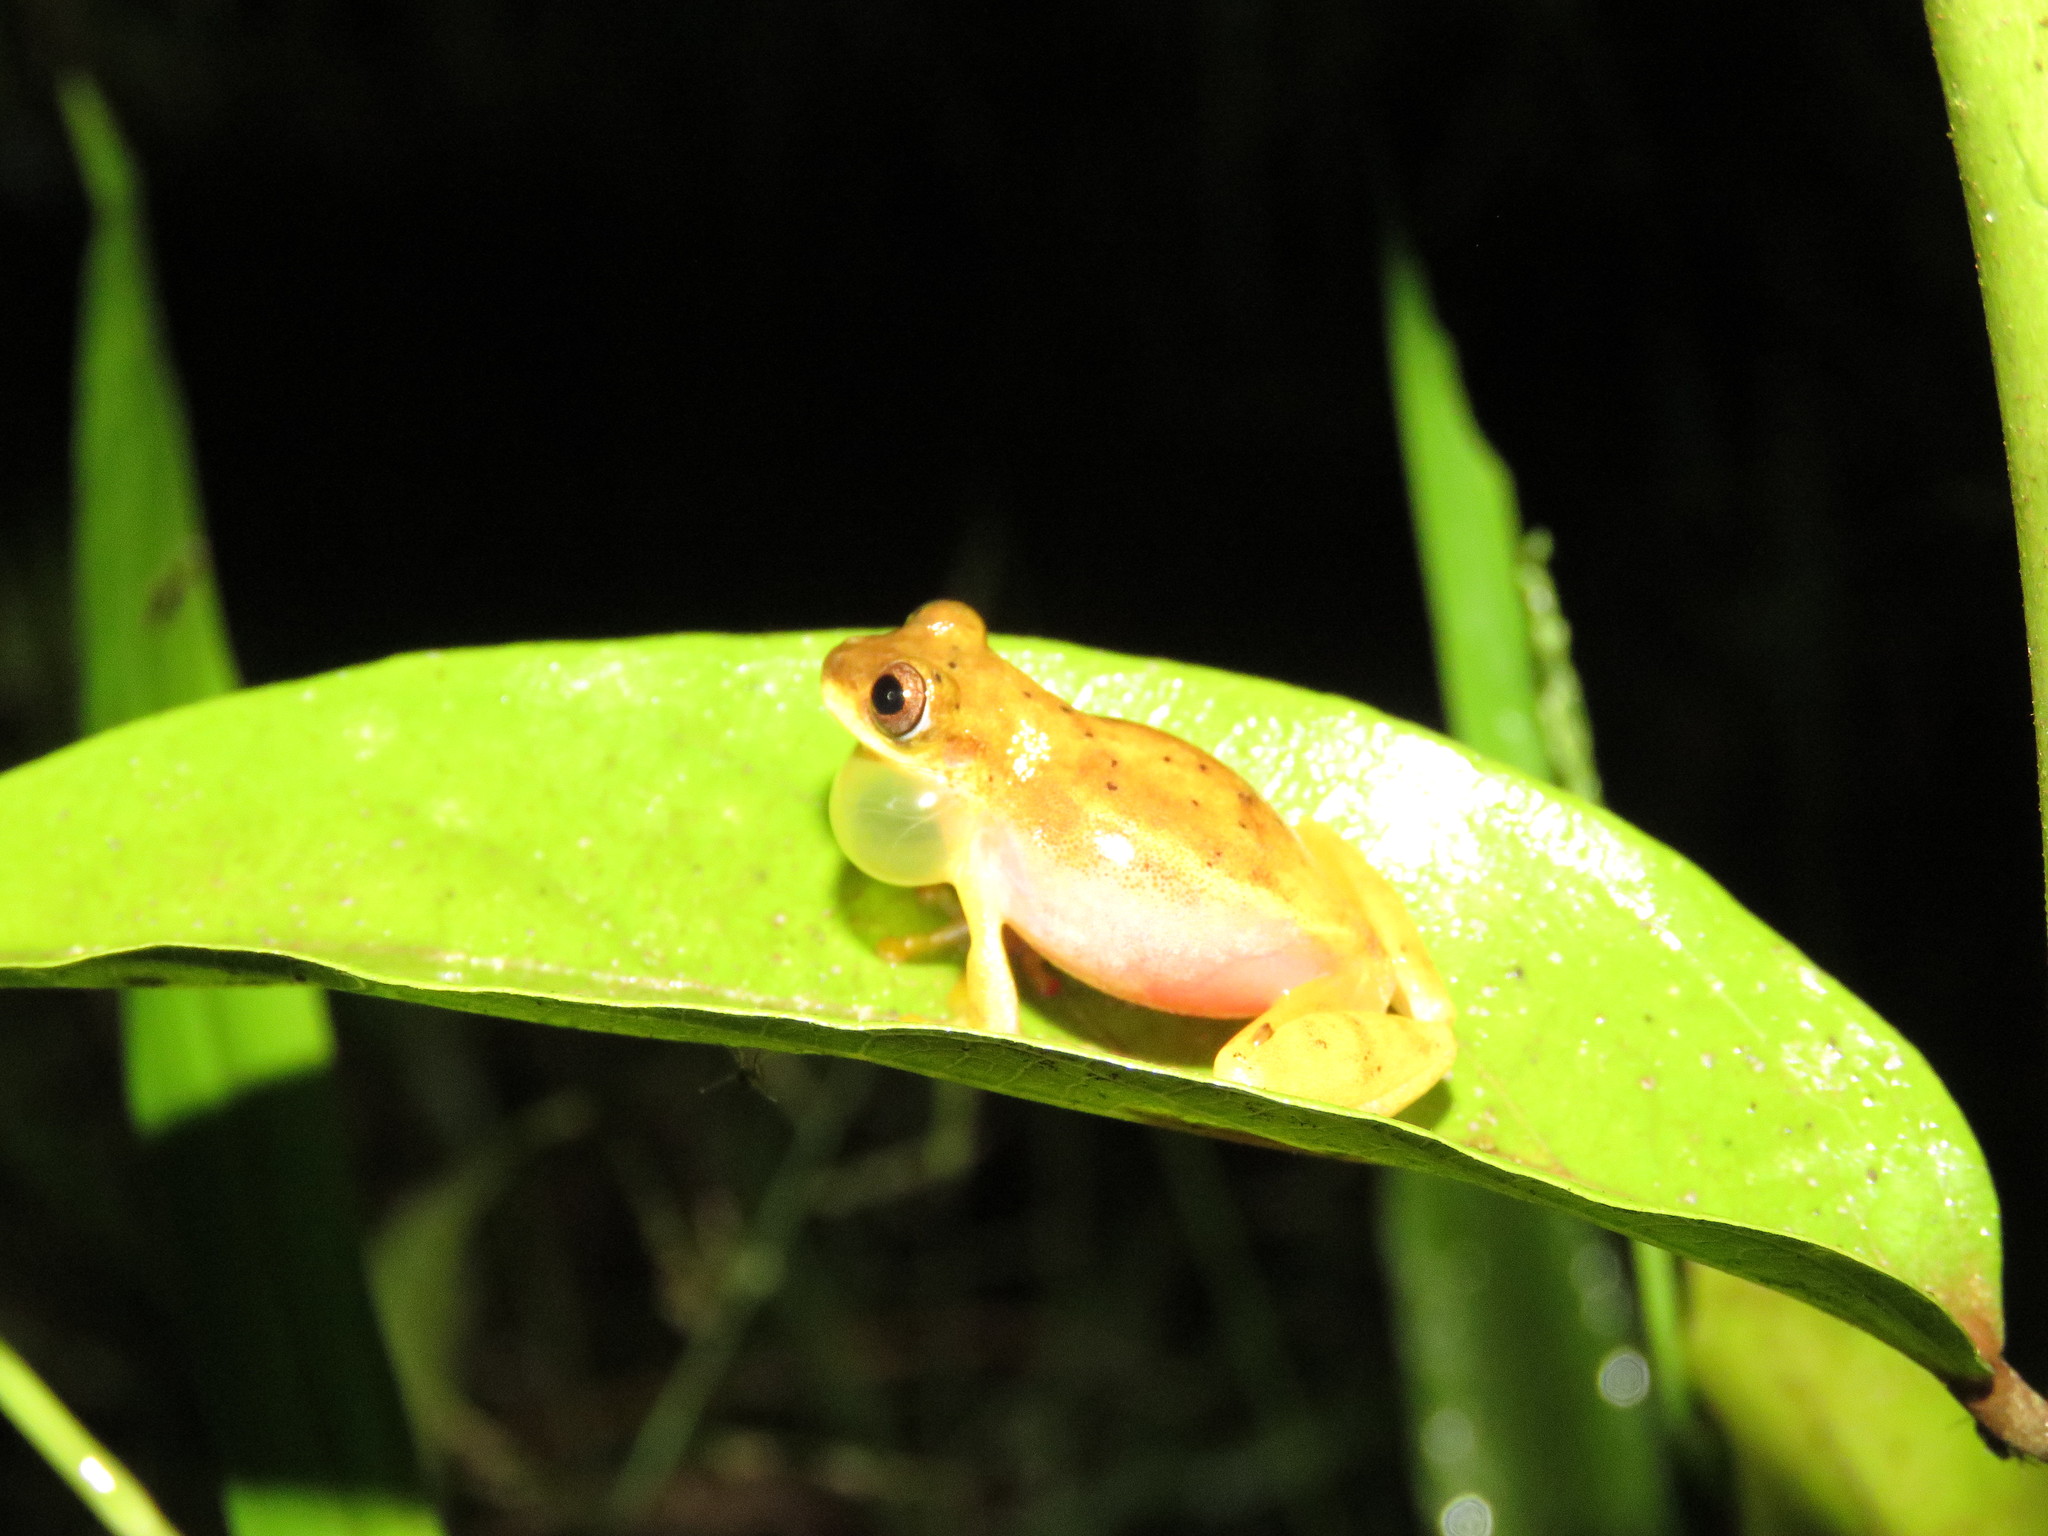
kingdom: Animalia
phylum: Chordata
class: Amphibia
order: Anura
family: Hylidae
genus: Dendropsophus
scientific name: Dendropsophus leali
